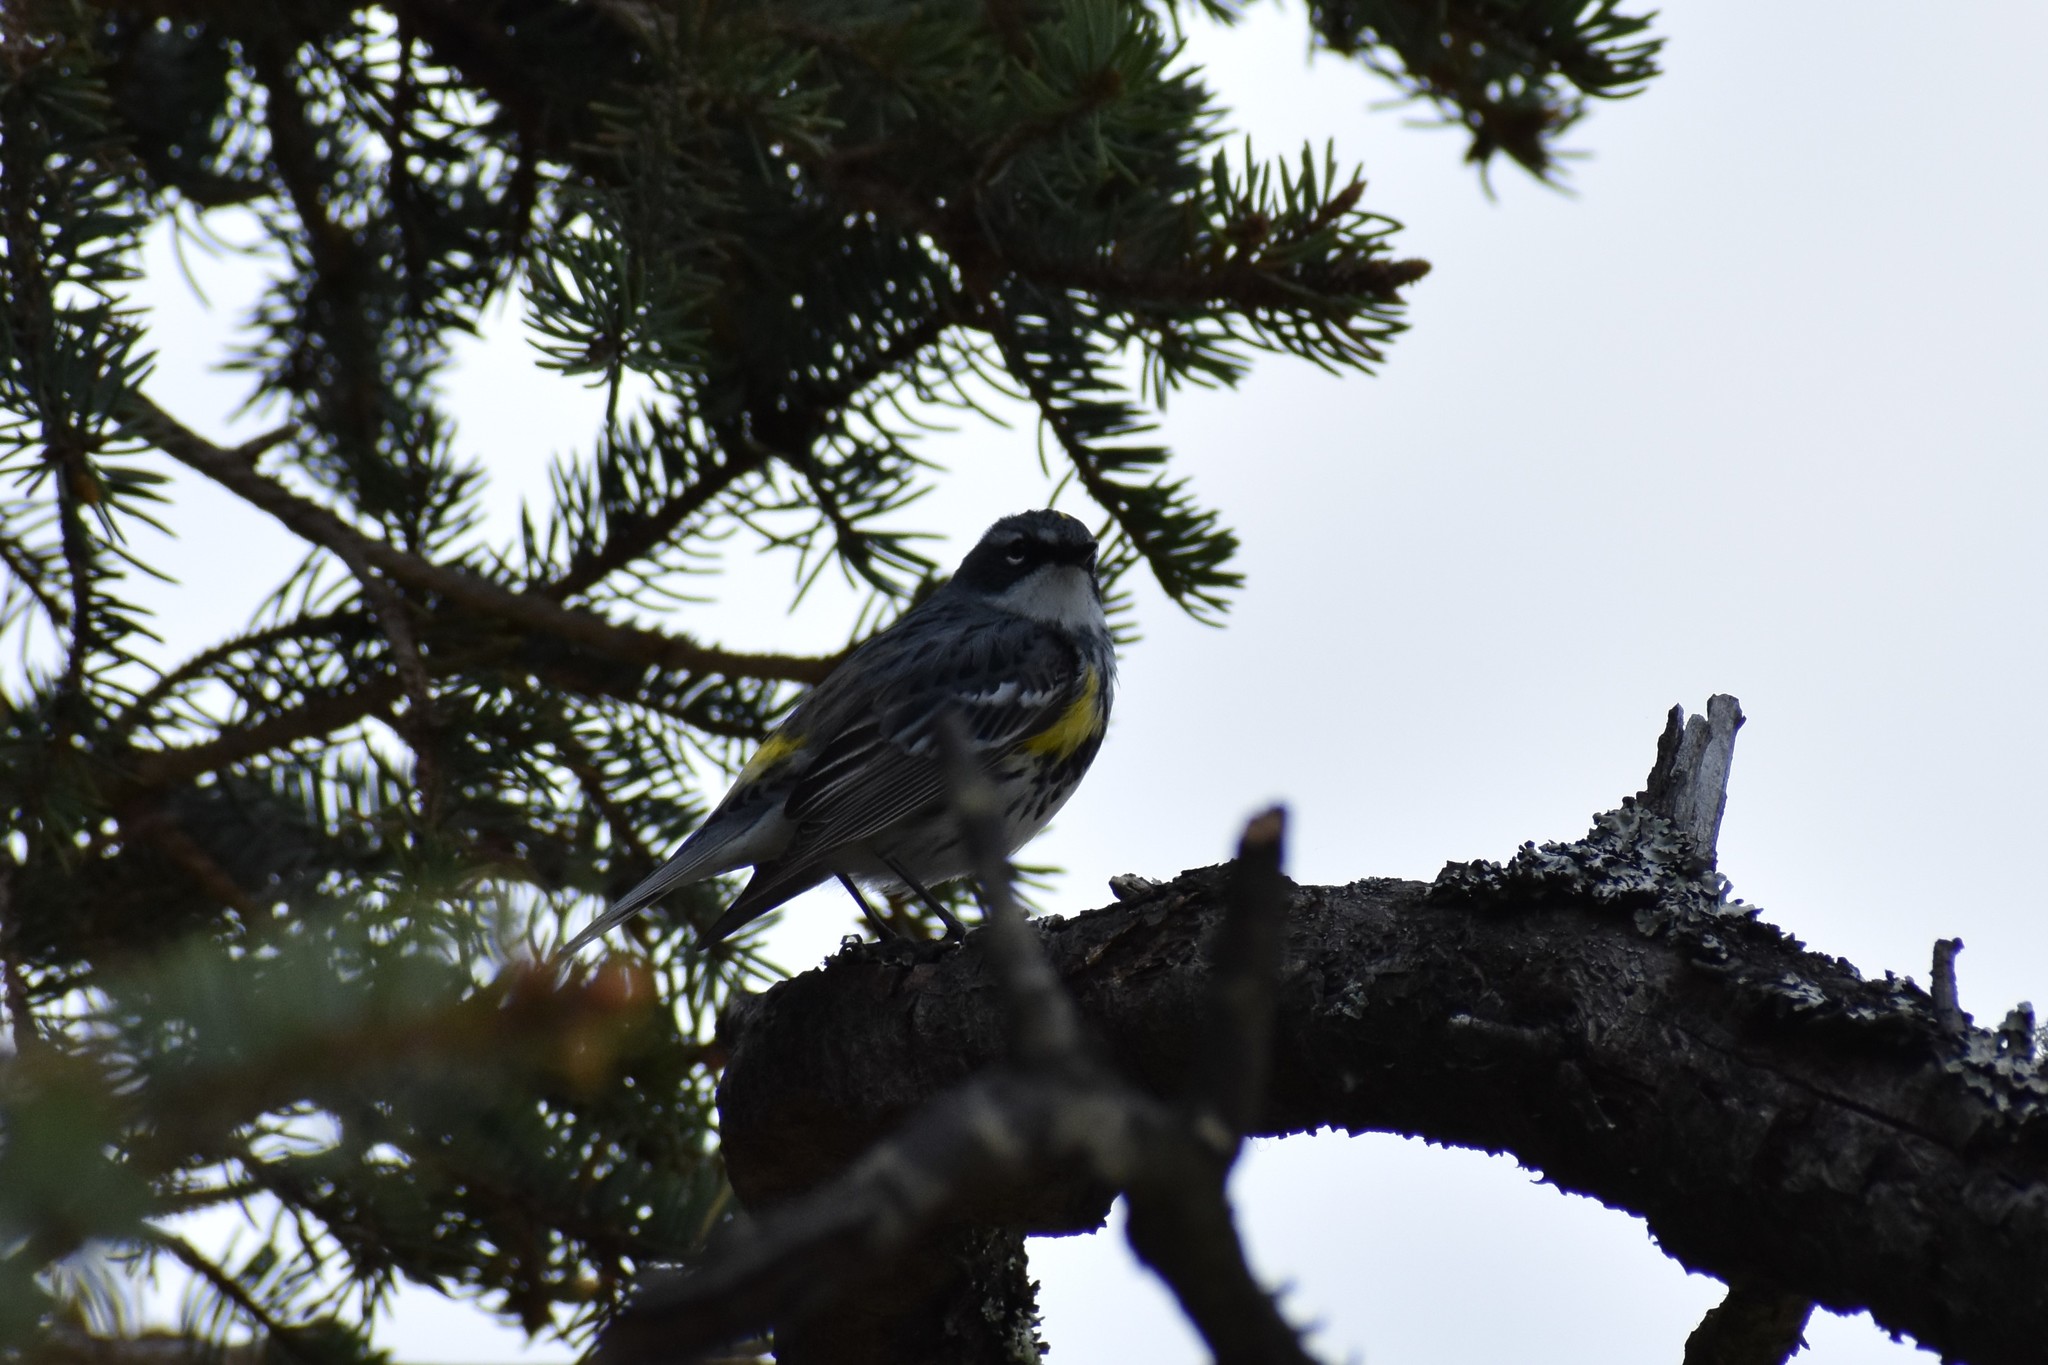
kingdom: Animalia
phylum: Chordata
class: Aves
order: Passeriformes
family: Parulidae
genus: Setophaga
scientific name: Setophaga coronata
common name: Myrtle warbler
